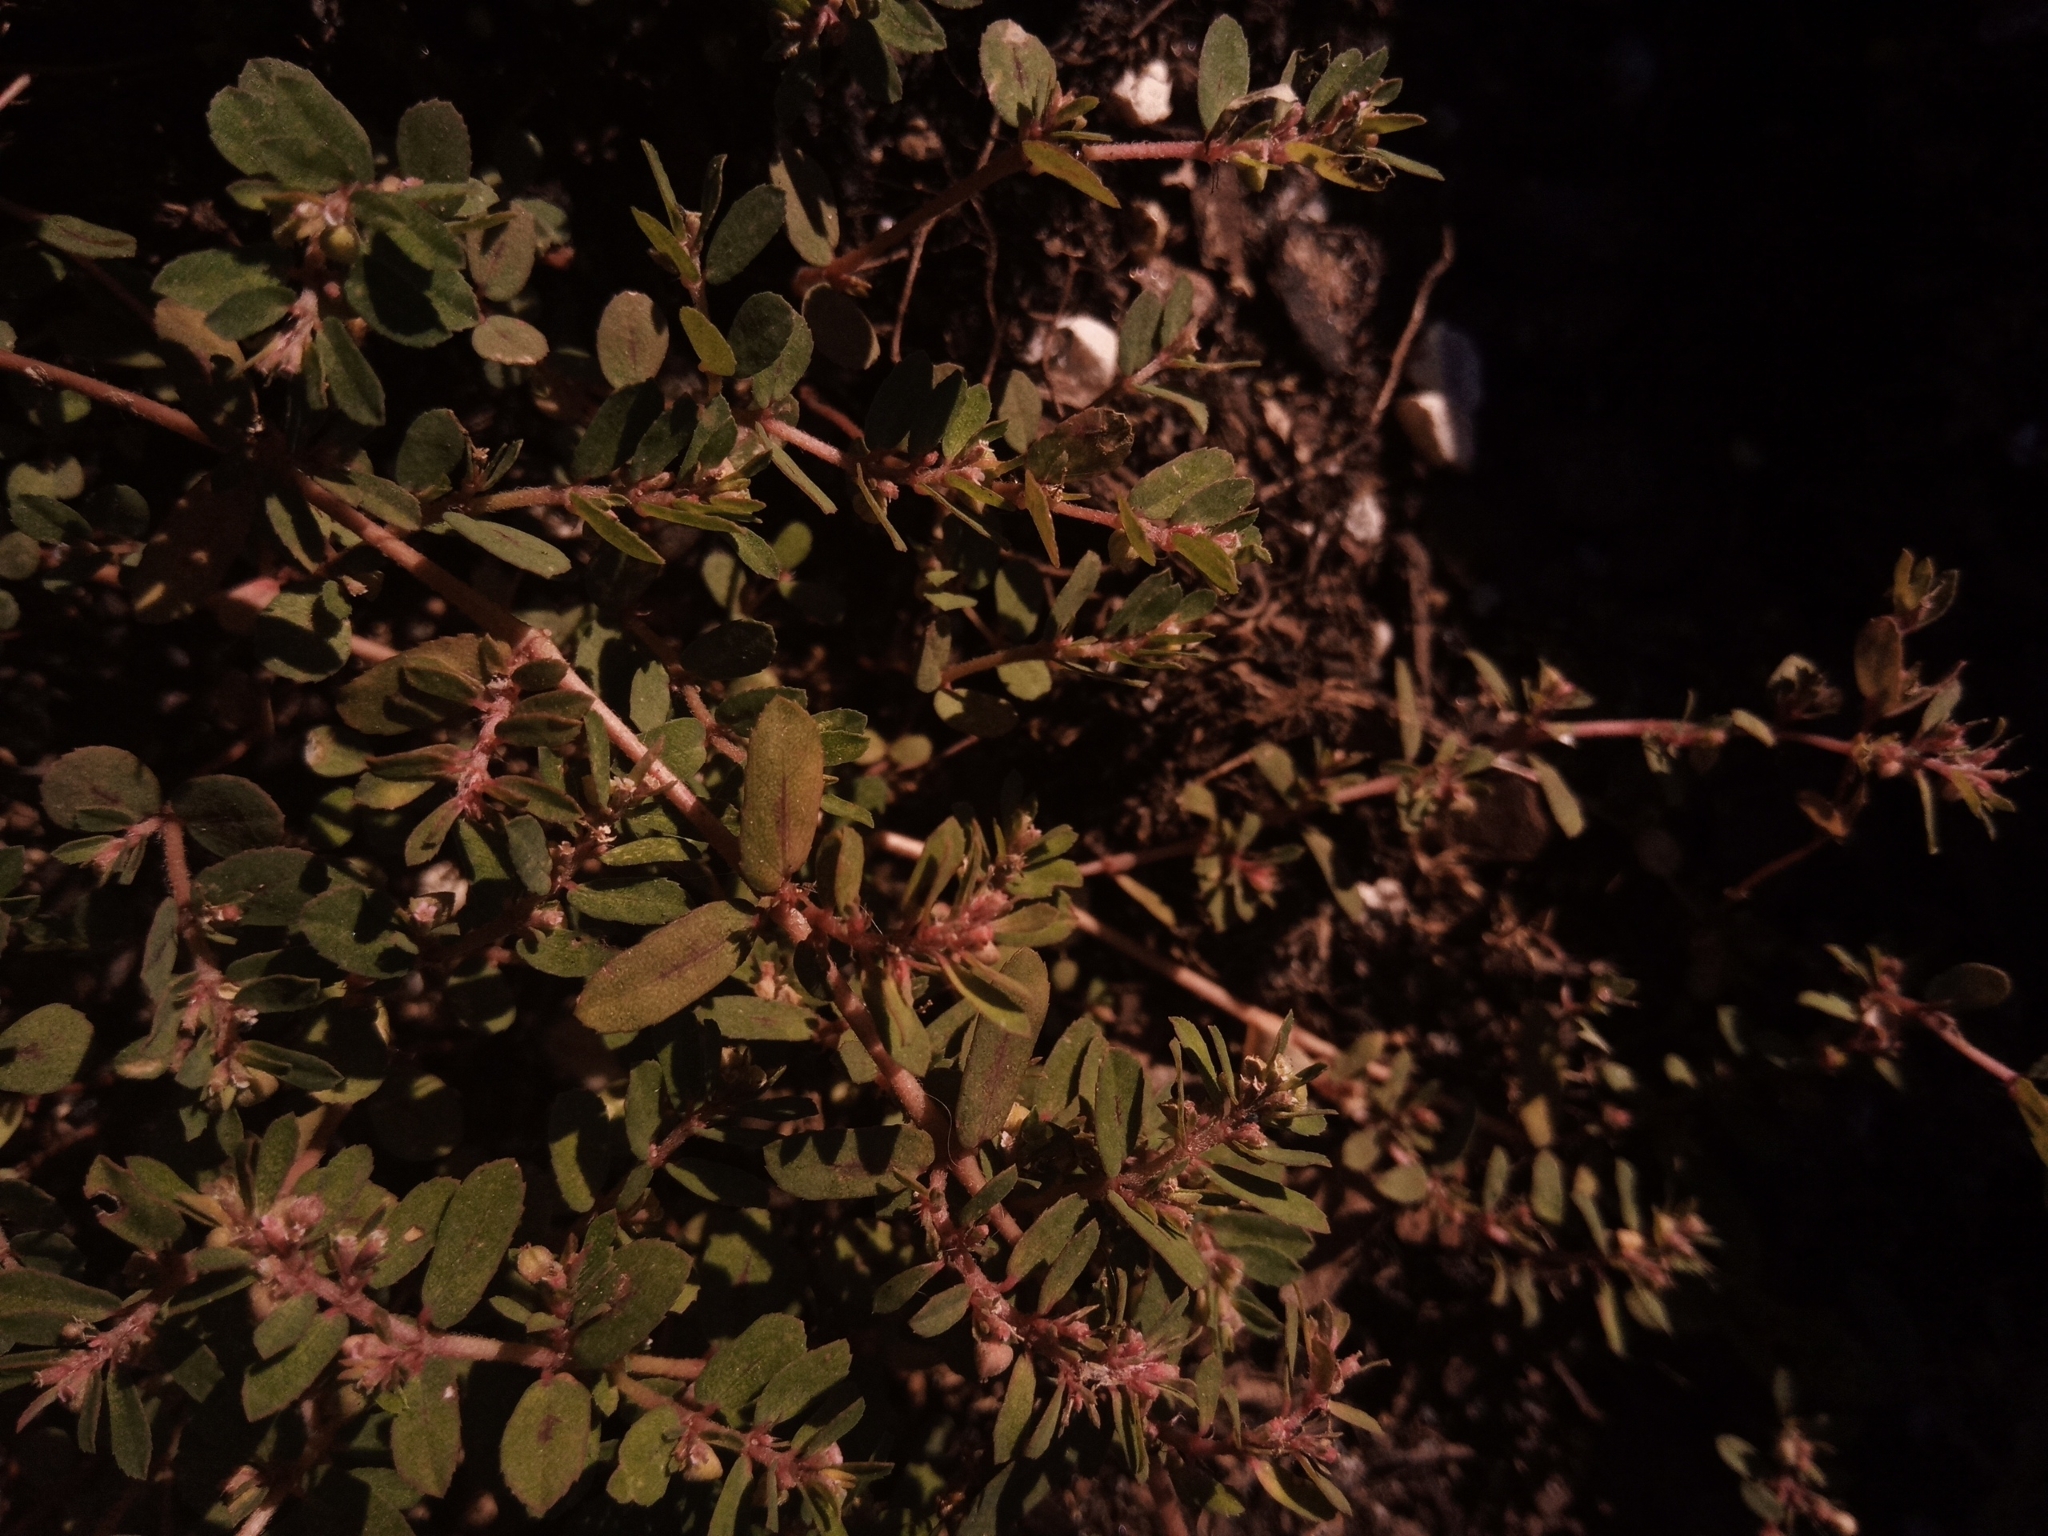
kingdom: Plantae
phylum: Tracheophyta
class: Magnoliopsida
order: Malpighiales
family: Euphorbiaceae
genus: Euphorbia
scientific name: Euphorbia maculata
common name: Spotted spurge
